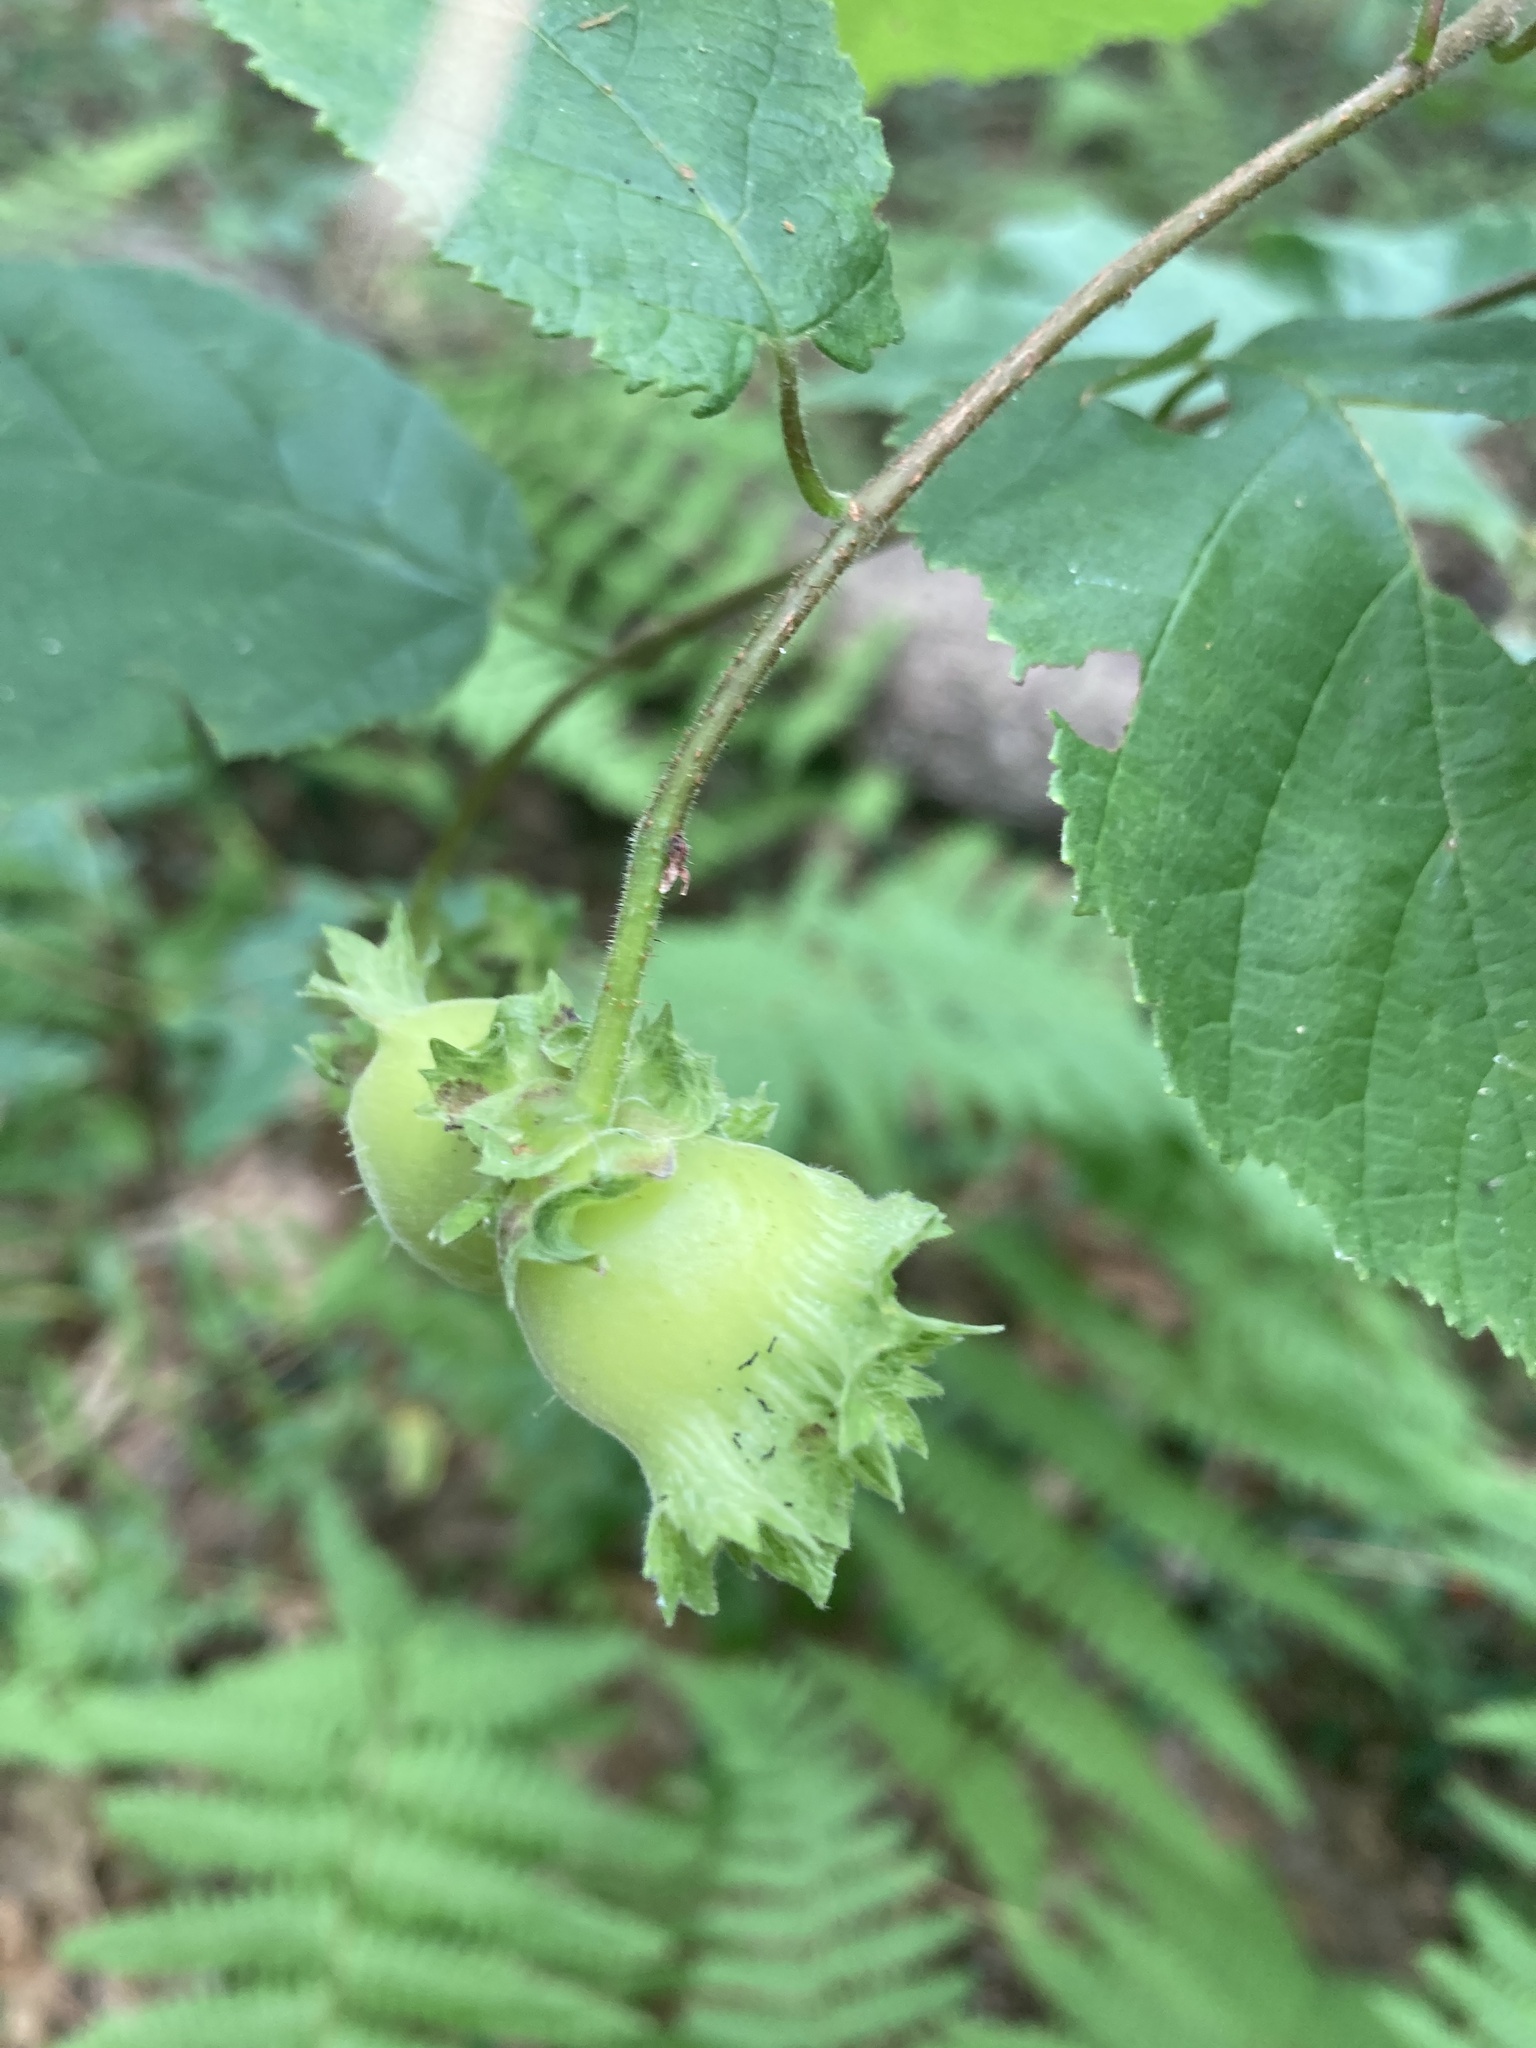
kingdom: Plantae
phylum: Tracheophyta
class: Magnoliopsida
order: Fagales
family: Betulaceae
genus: Corylus
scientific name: Corylus americana
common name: American hazel
